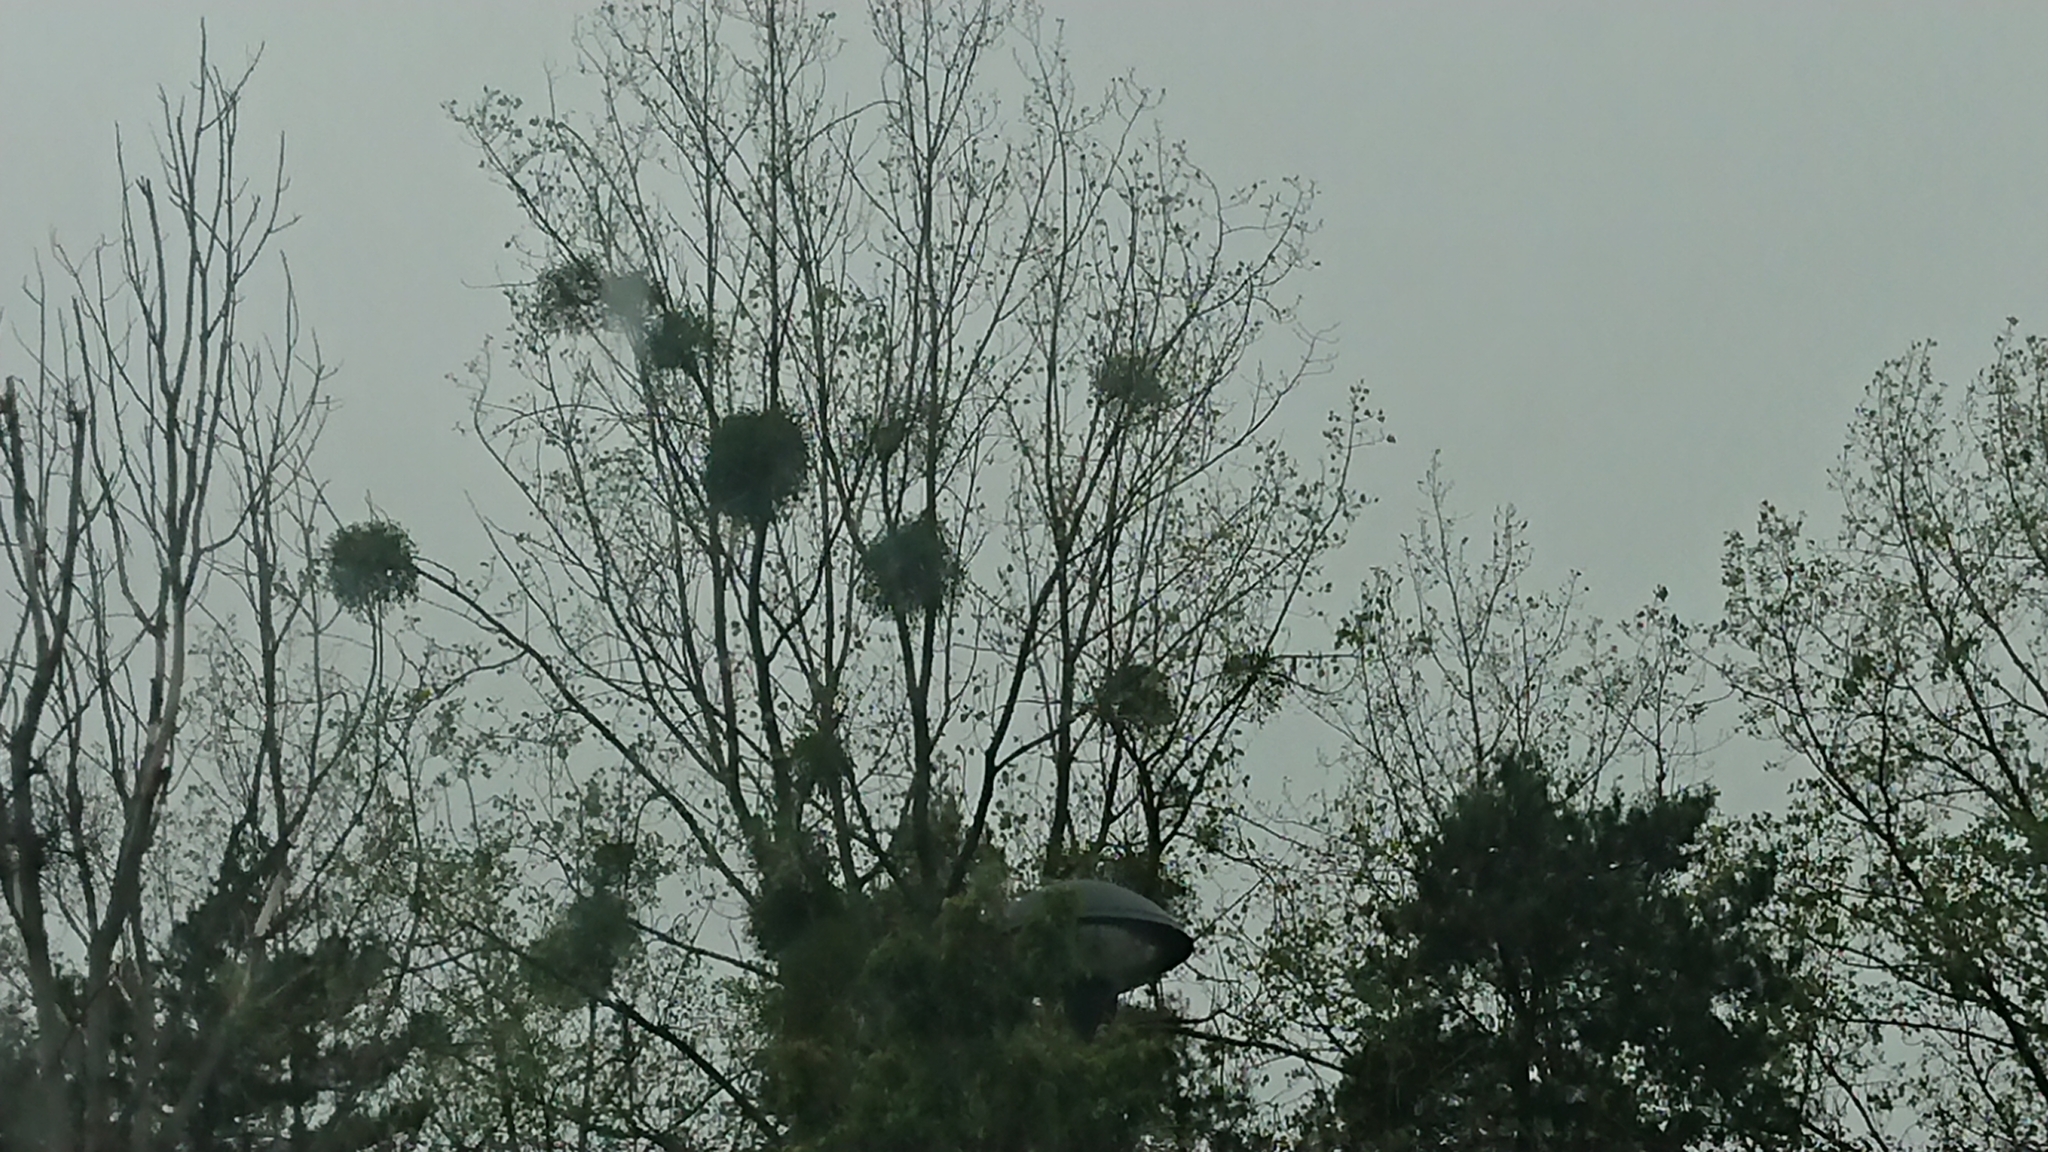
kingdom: Plantae
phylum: Tracheophyta
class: Magnoliopsida
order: Santalales
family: Viscaceae
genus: Viscum
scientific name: Viscum album
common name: Mistletoe
